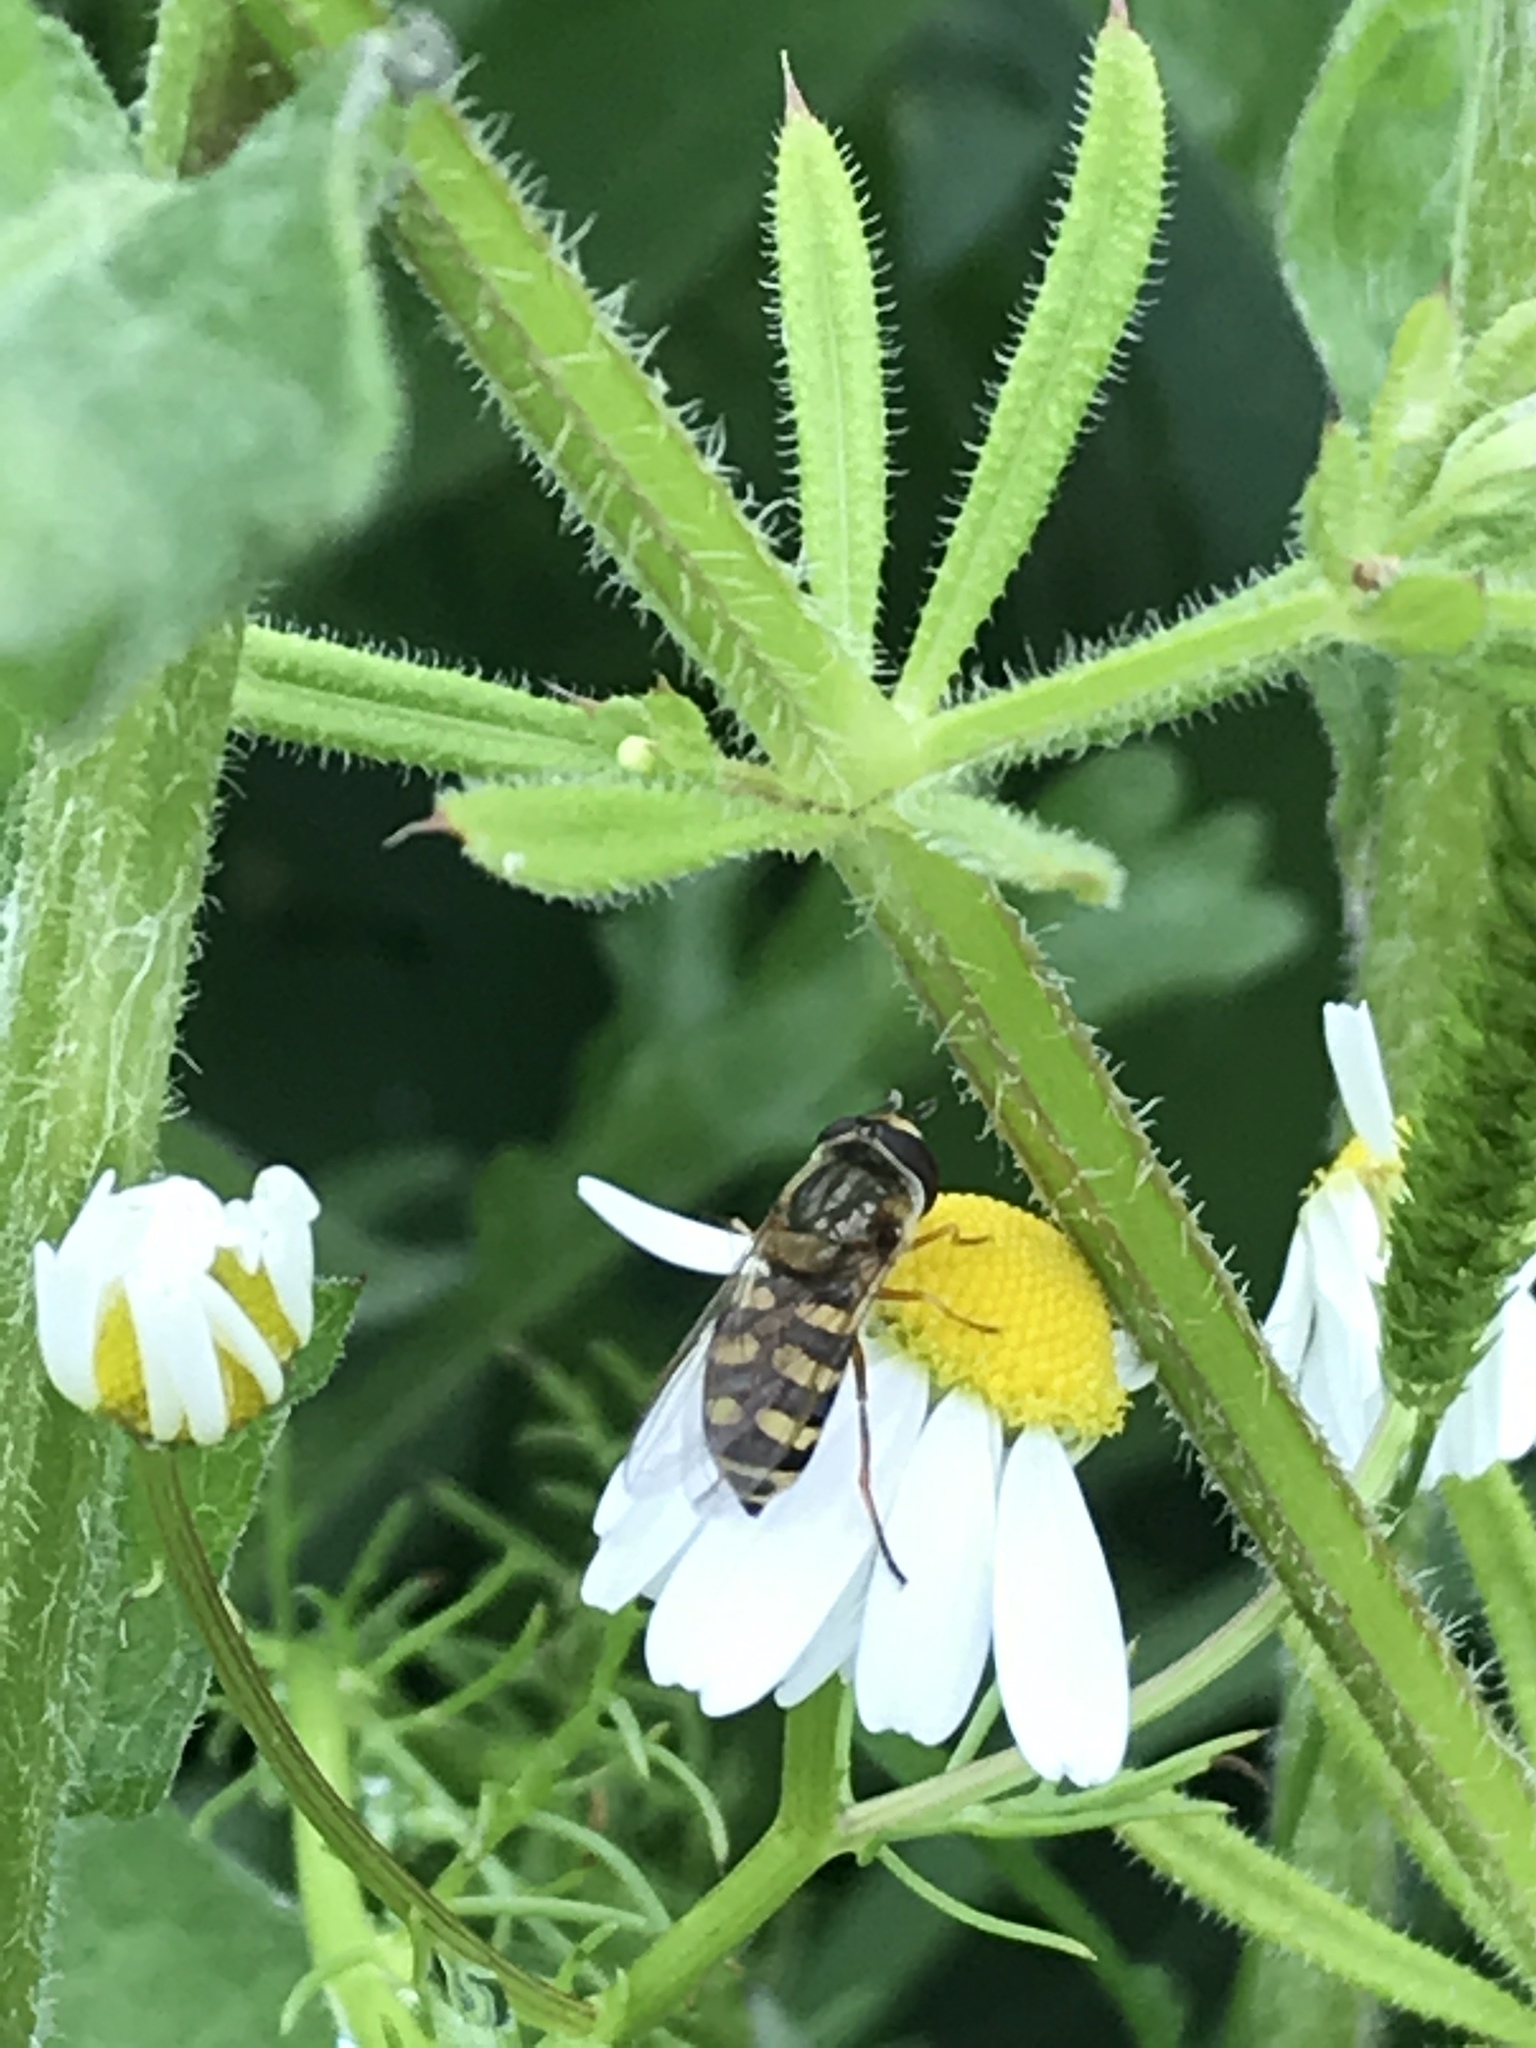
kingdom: Animalia
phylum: Arthropoda
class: Insecta
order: Diptera
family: Syrphidae
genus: Eupeodes
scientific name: Eupeodes corollae
